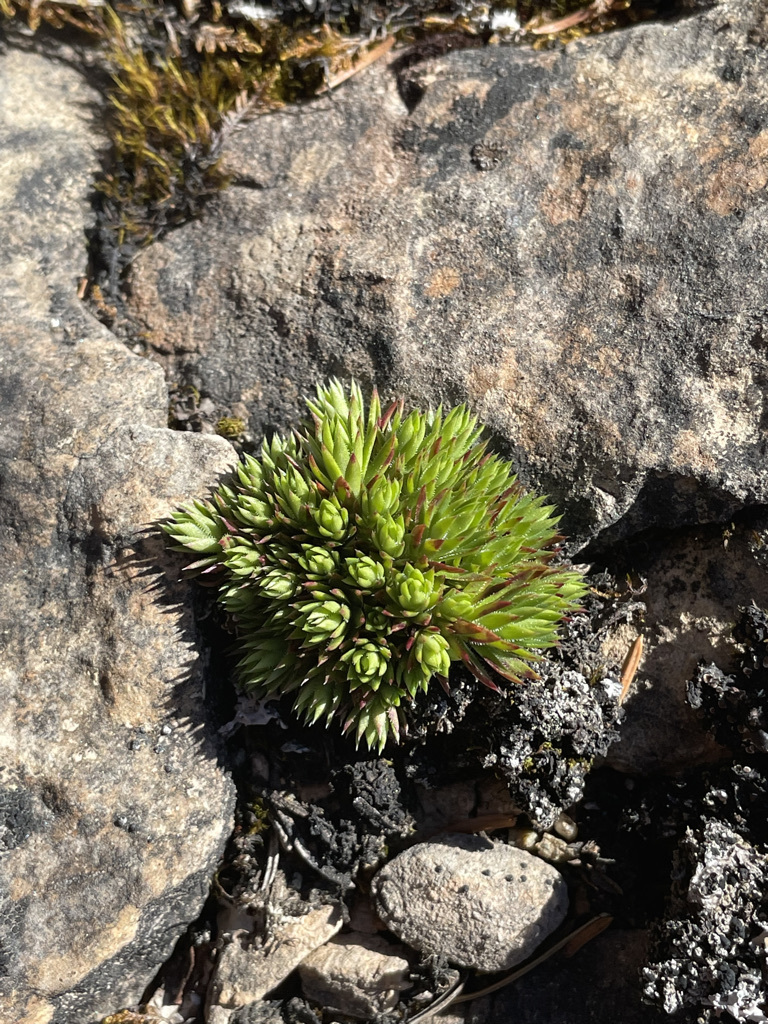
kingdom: Plantae
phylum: Tracheophyta
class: Magnoliopsida
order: Saxifragales
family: Saxifragaceae
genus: Saxifraga
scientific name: Saxifraga bronchialis
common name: Matted saxifrage
